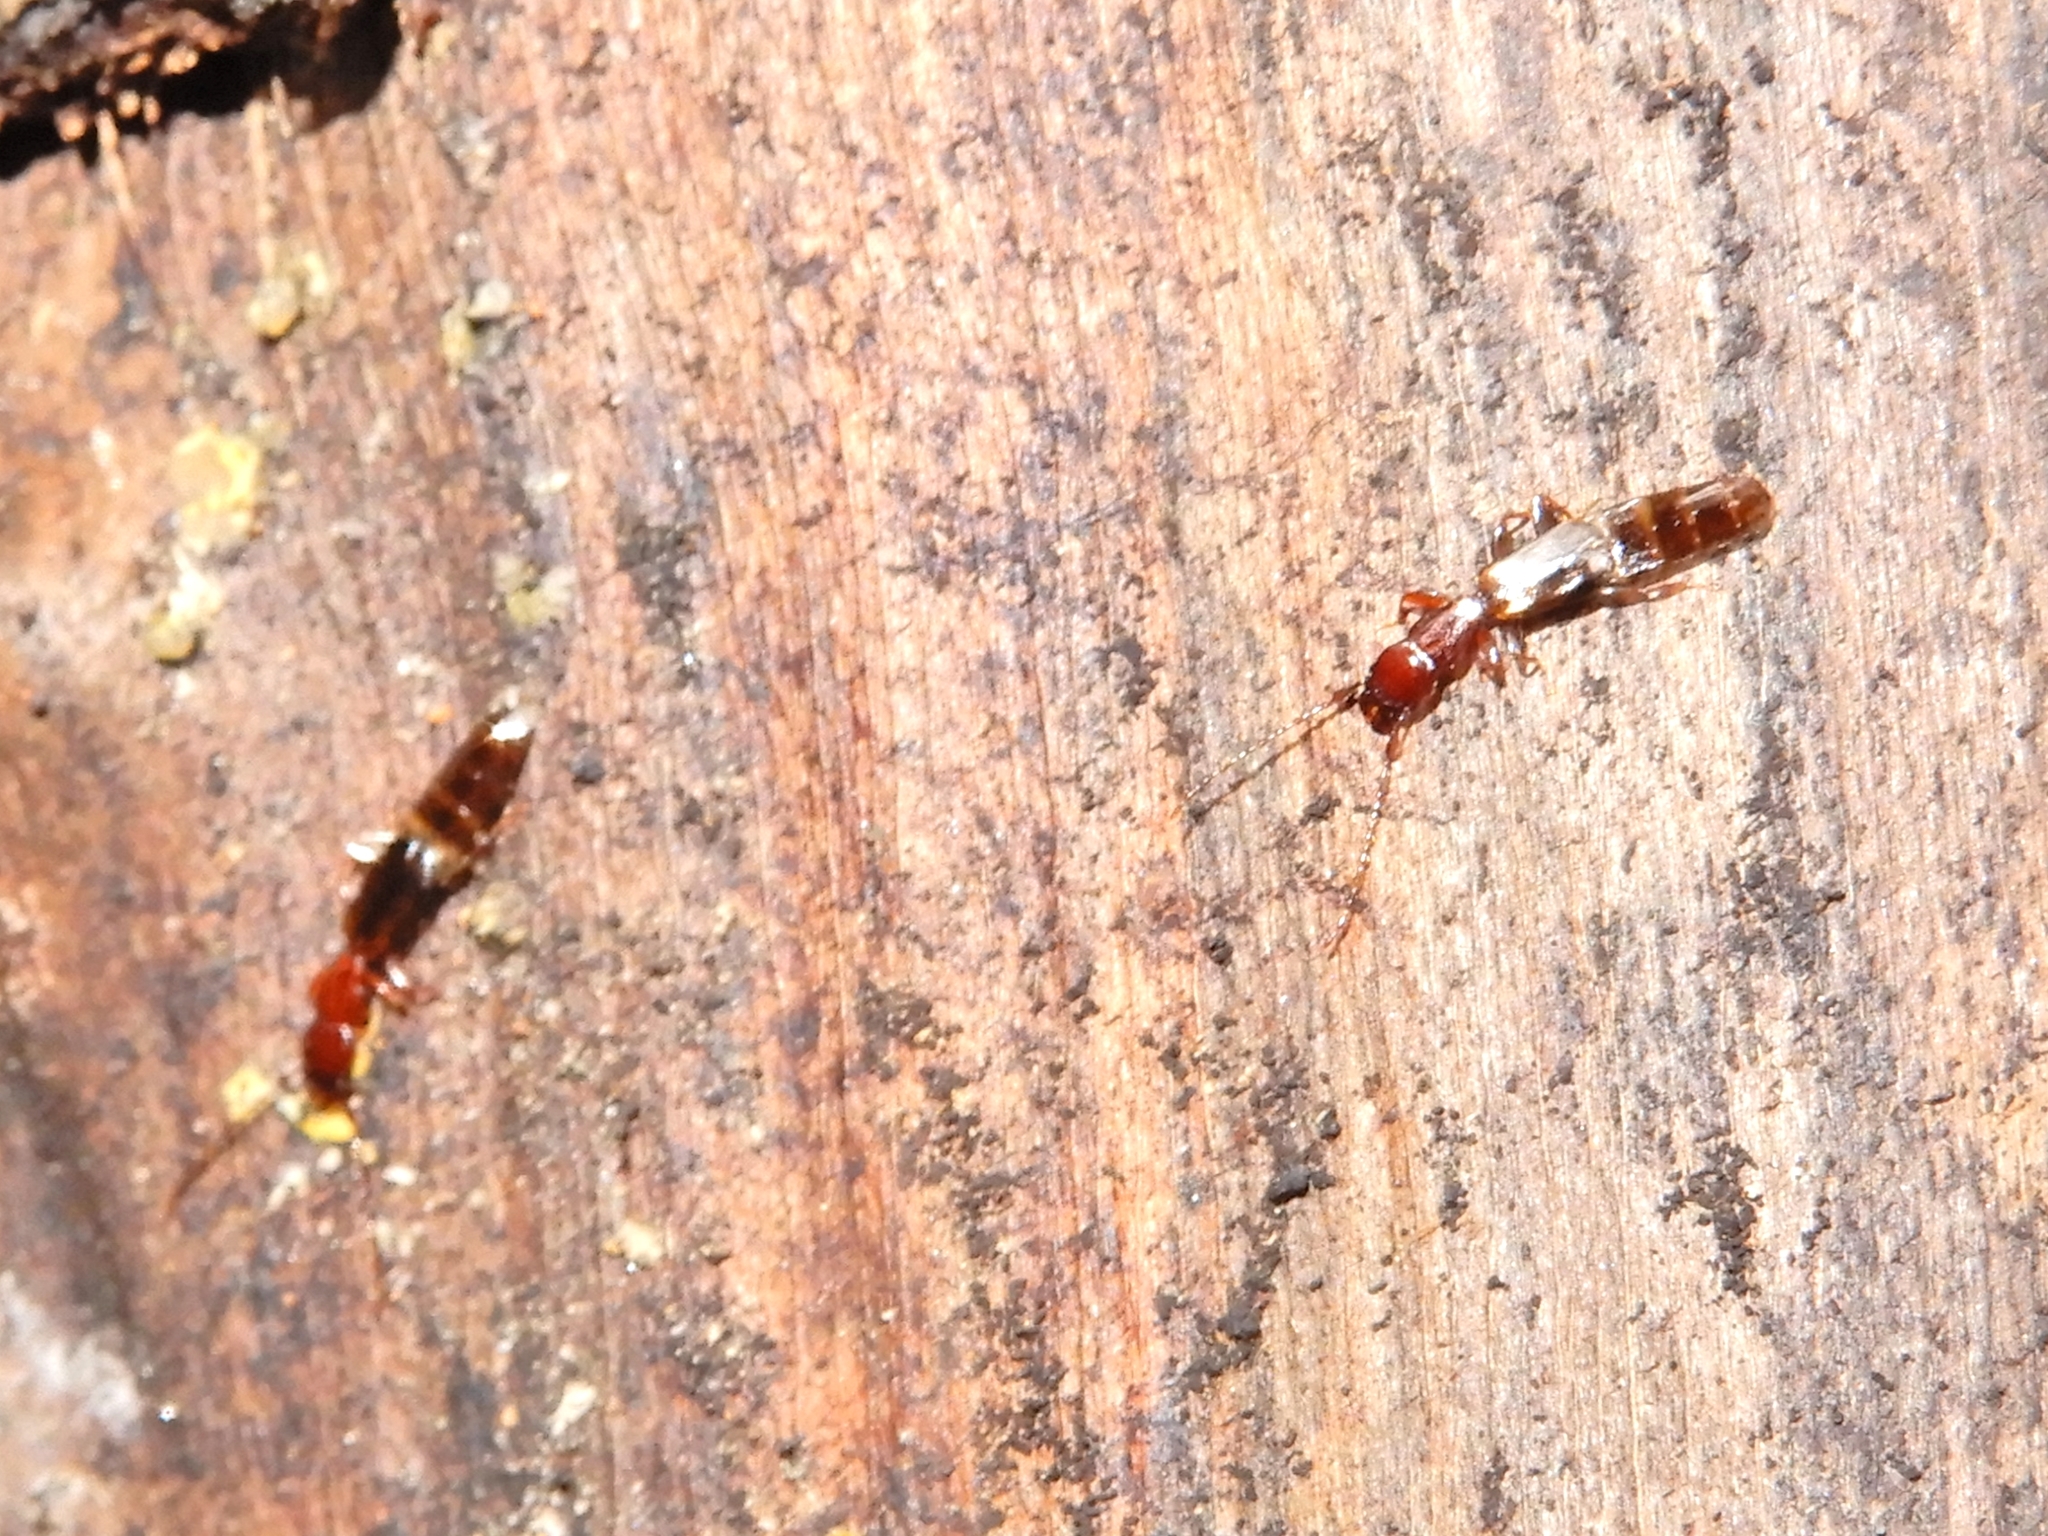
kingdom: Animalia
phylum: Arthropoda
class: Insecta
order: Coleoptera
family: Salpingidae
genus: Diagrypnodes
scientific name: Diagrypnodes
